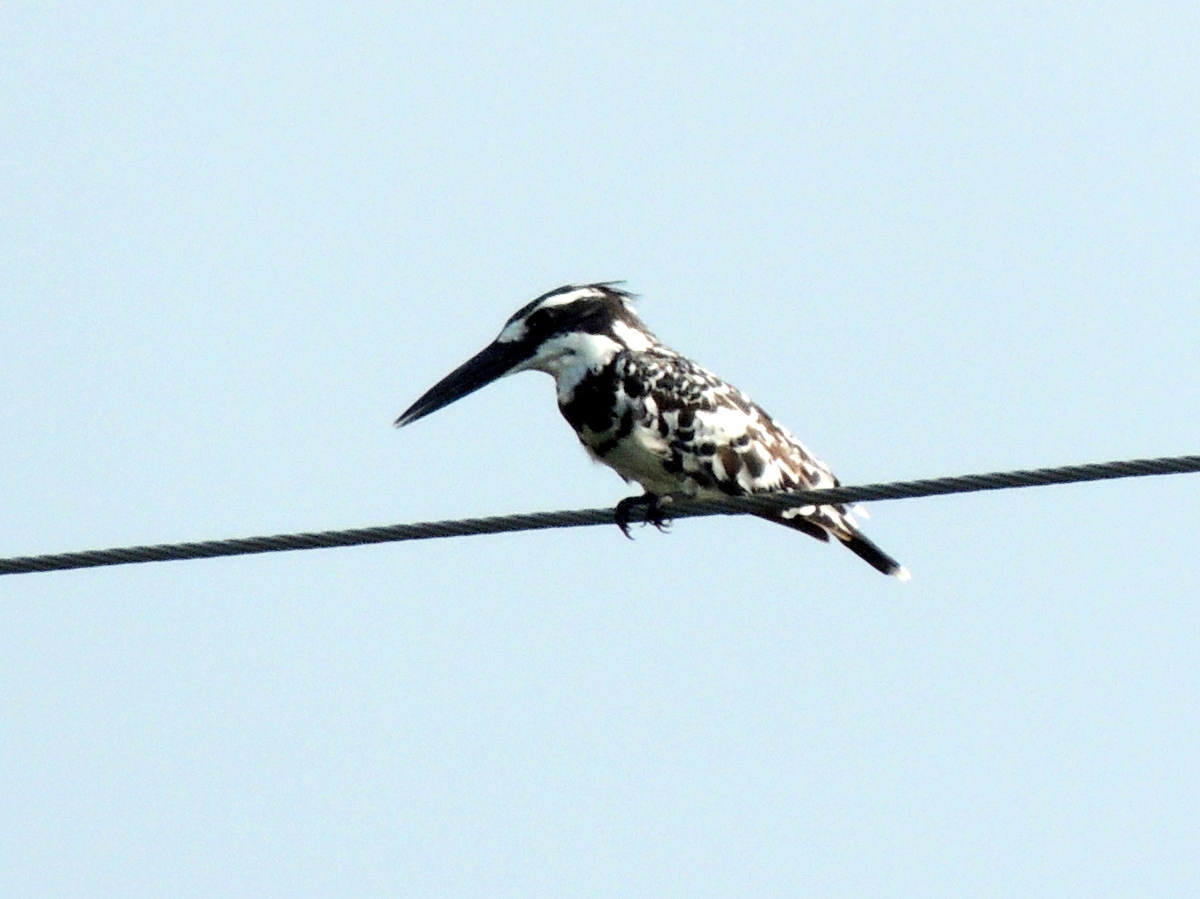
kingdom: Animalia
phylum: Chordata
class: Aves
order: Coraciiformes
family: Alcedinidae
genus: Ceryle
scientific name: Ceryle rudis
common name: Pied kingfisher
